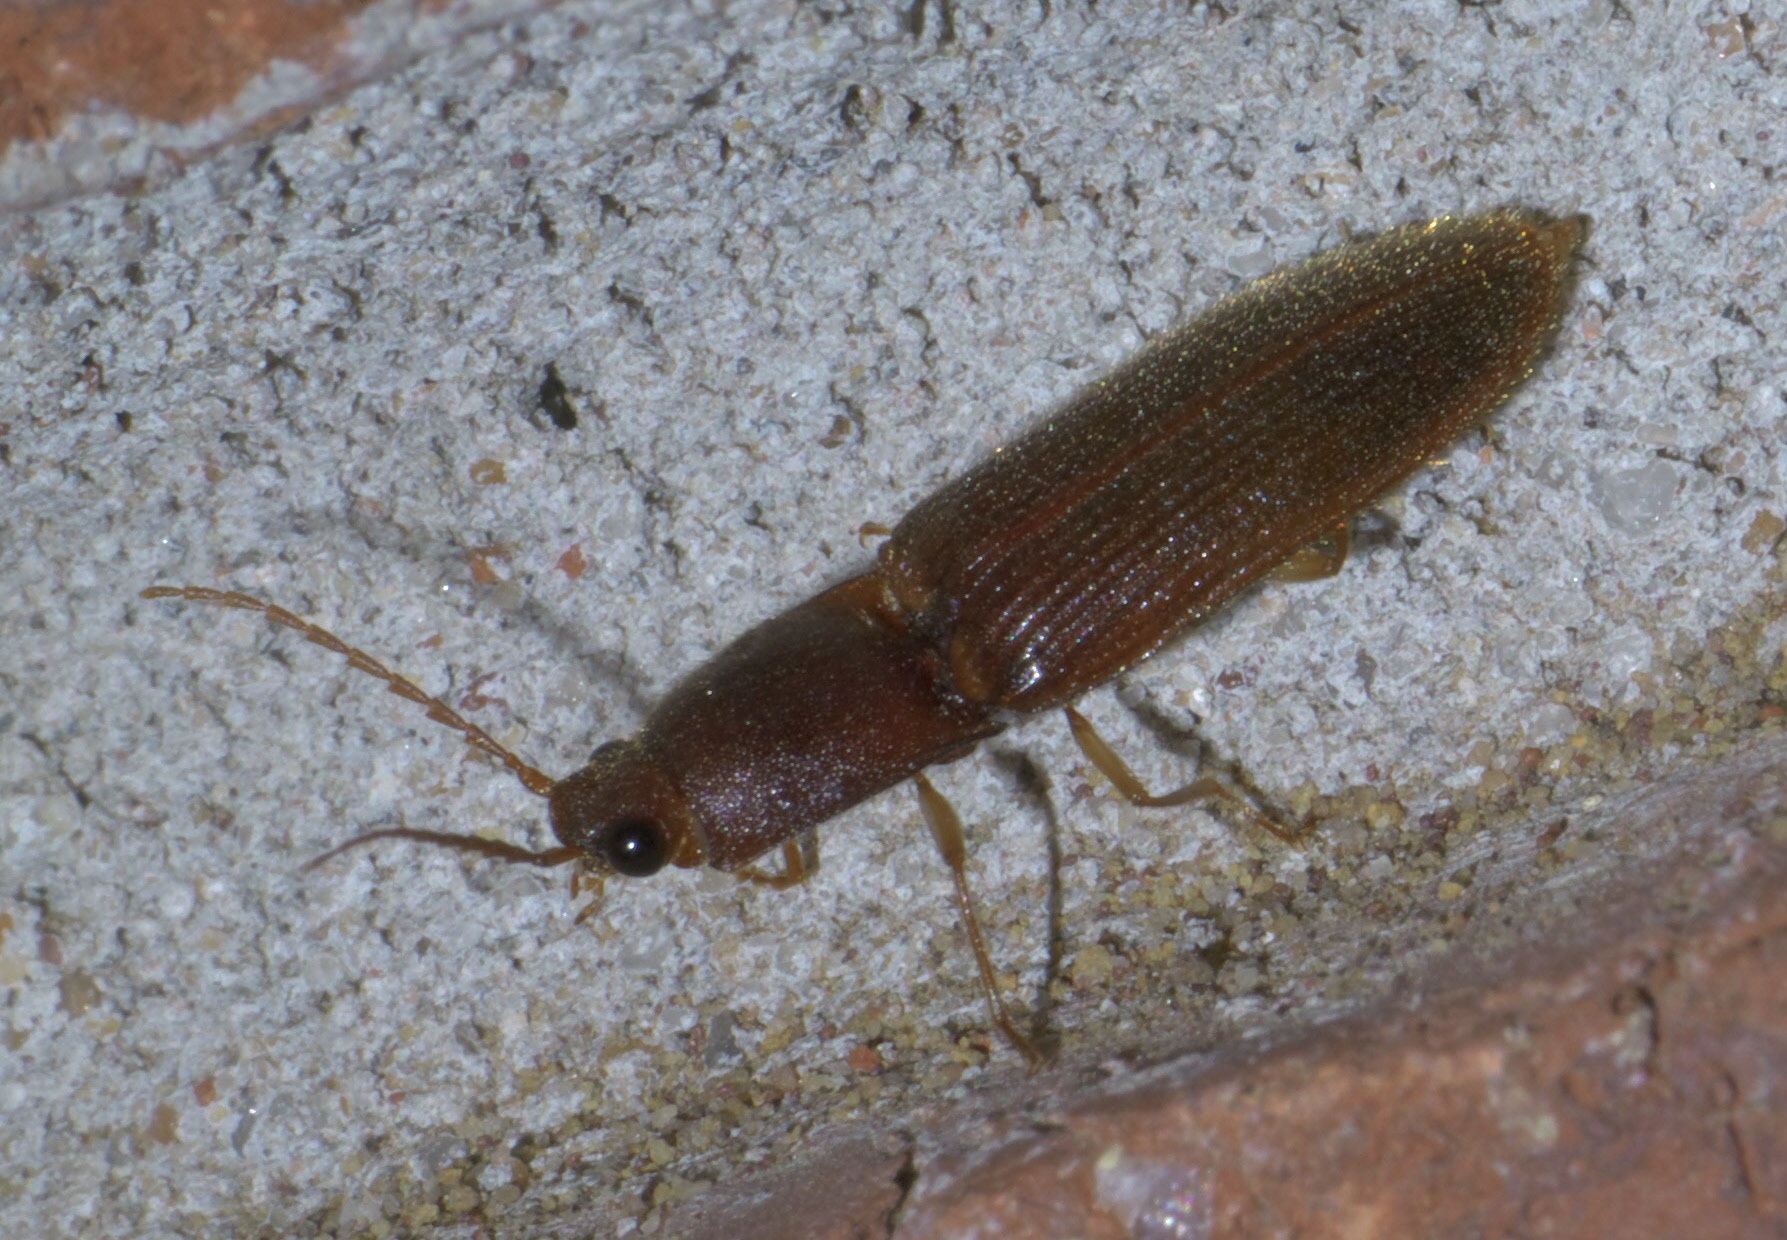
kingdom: Animalia
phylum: Arthropoda
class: Insecta
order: Coleoptera
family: Elateridae
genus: Athous
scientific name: Athous cucullatus
